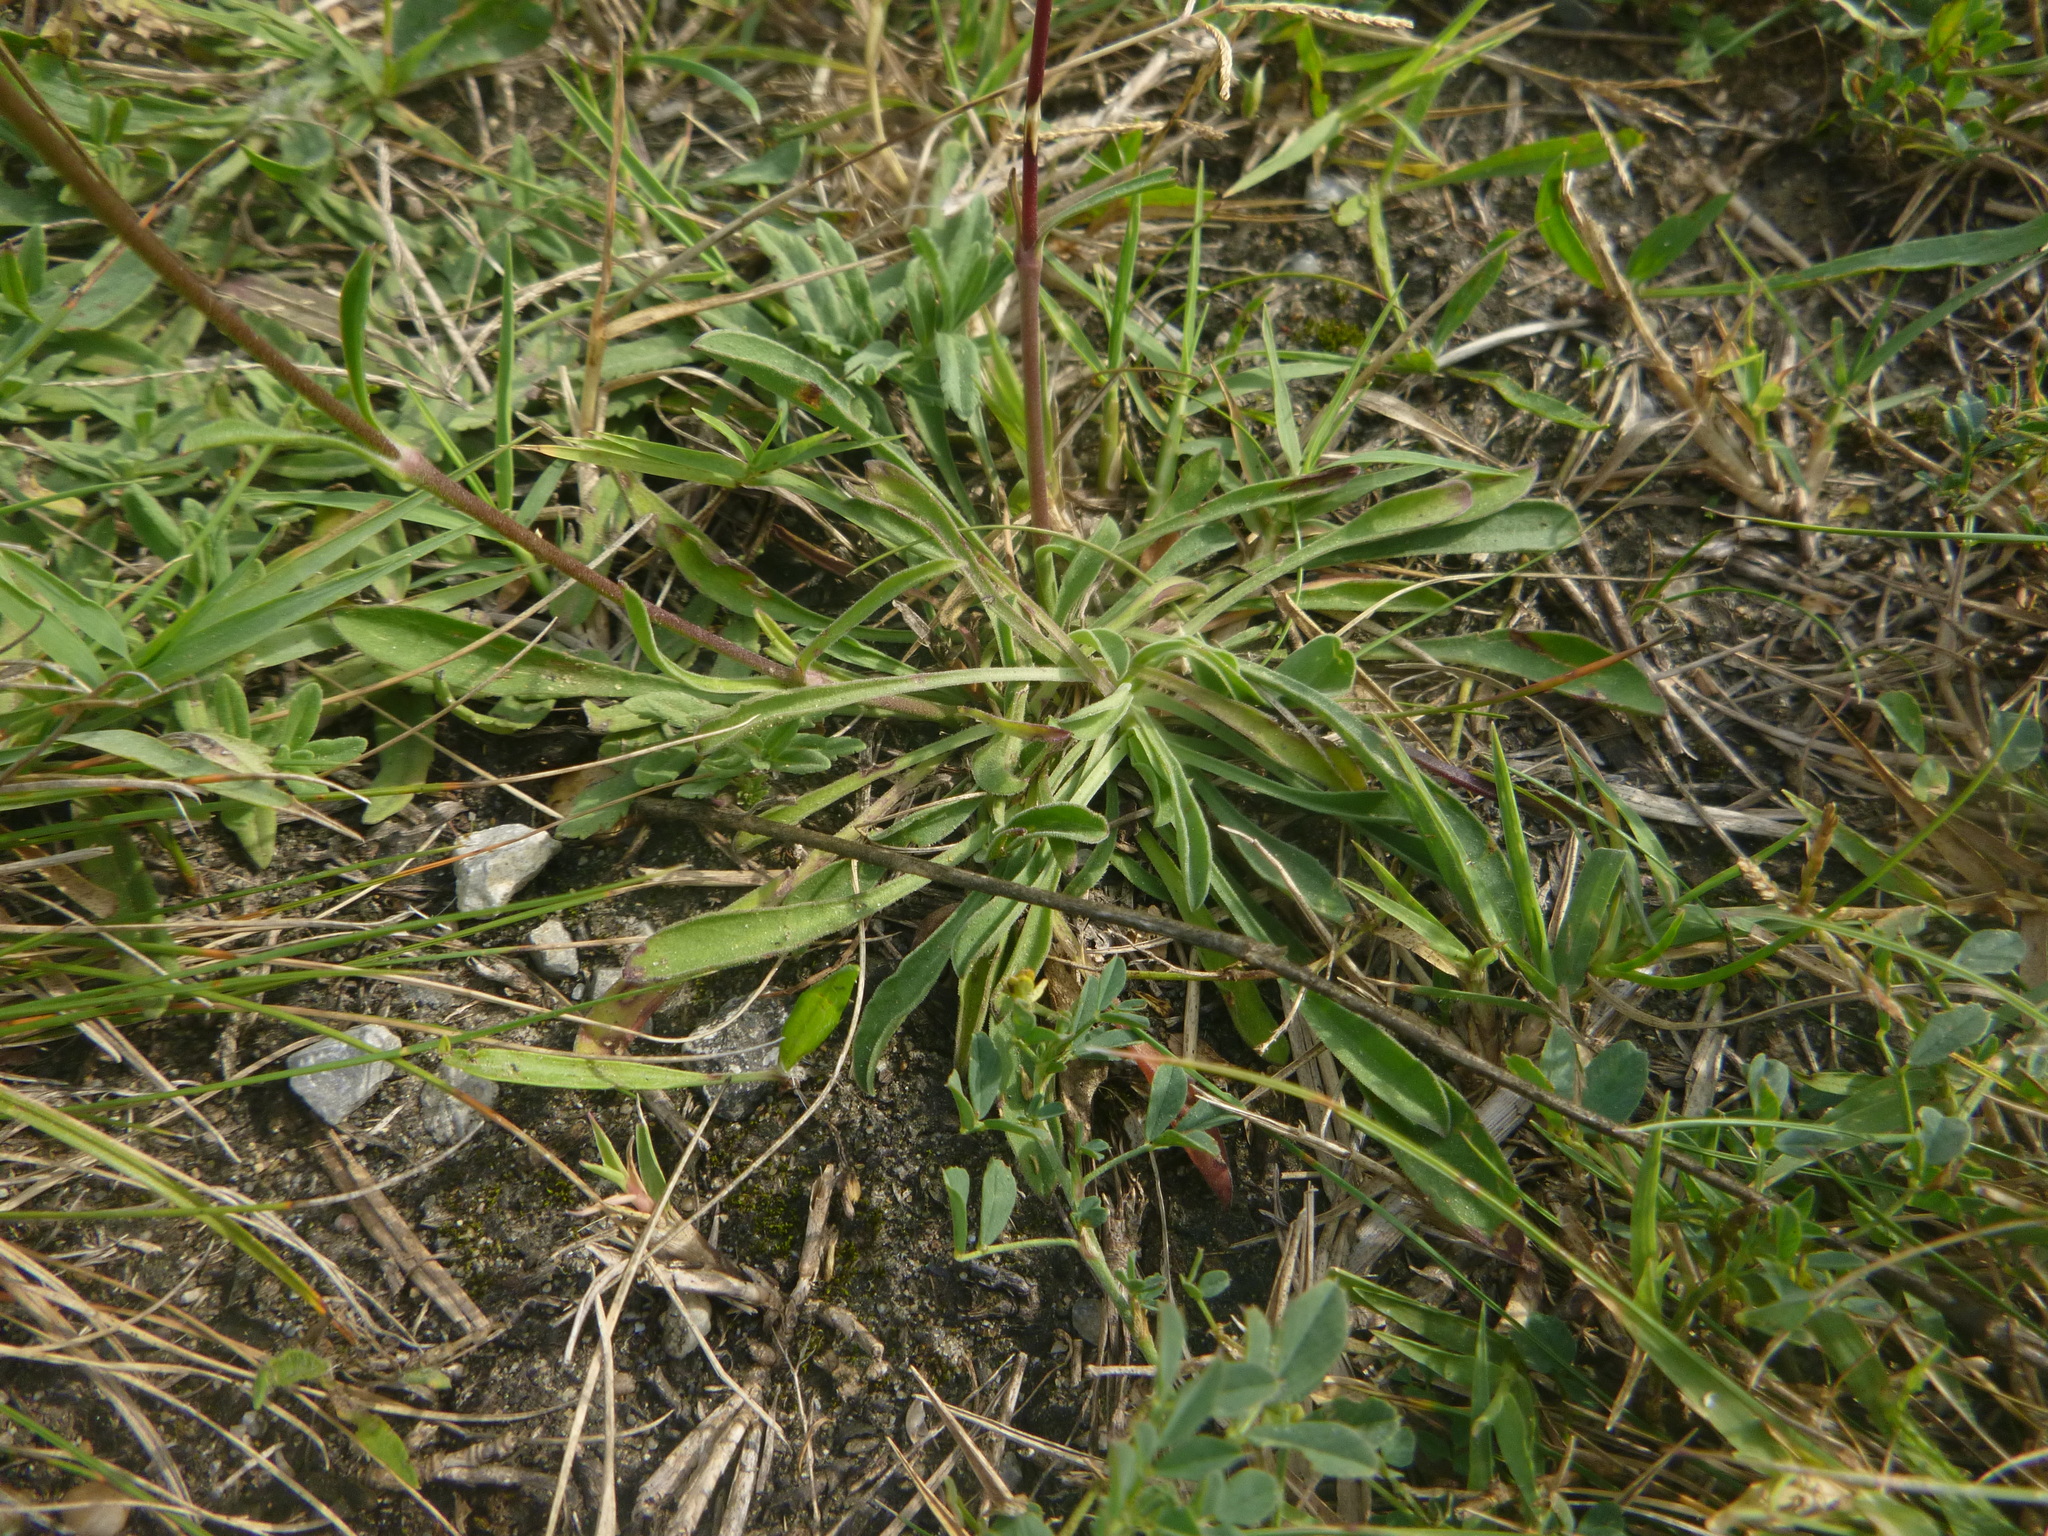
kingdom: Plantae
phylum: Tracheophyta
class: Magnoliopsida
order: Caryophyllales
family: Caryophyllaceae
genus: Silene
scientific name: Silene otites
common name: Spanish catchfly
